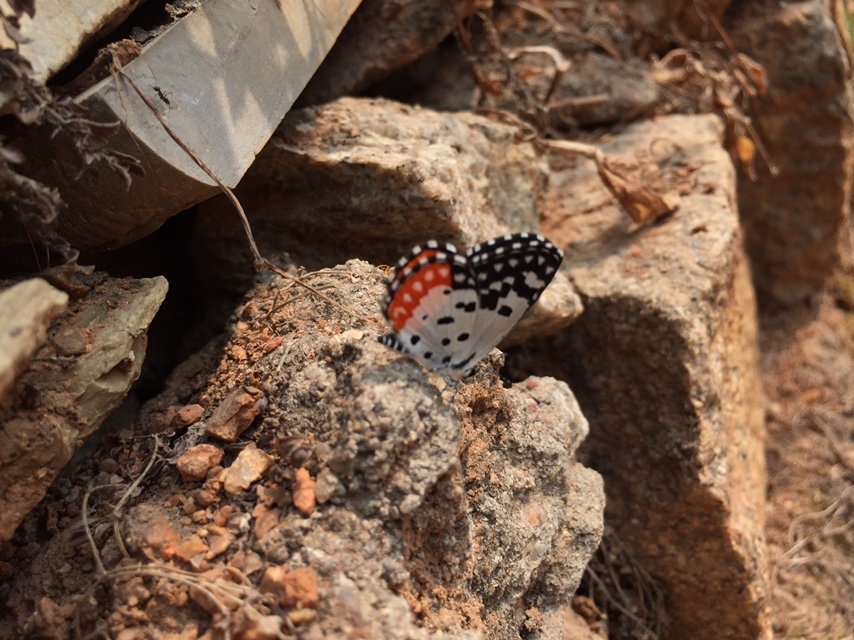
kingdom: Animalia
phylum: Arthropoda
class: Insecta
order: Lepidoptera
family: Lycaenidae
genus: Talicada
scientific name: Talicada nyseus
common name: Red pierrot
